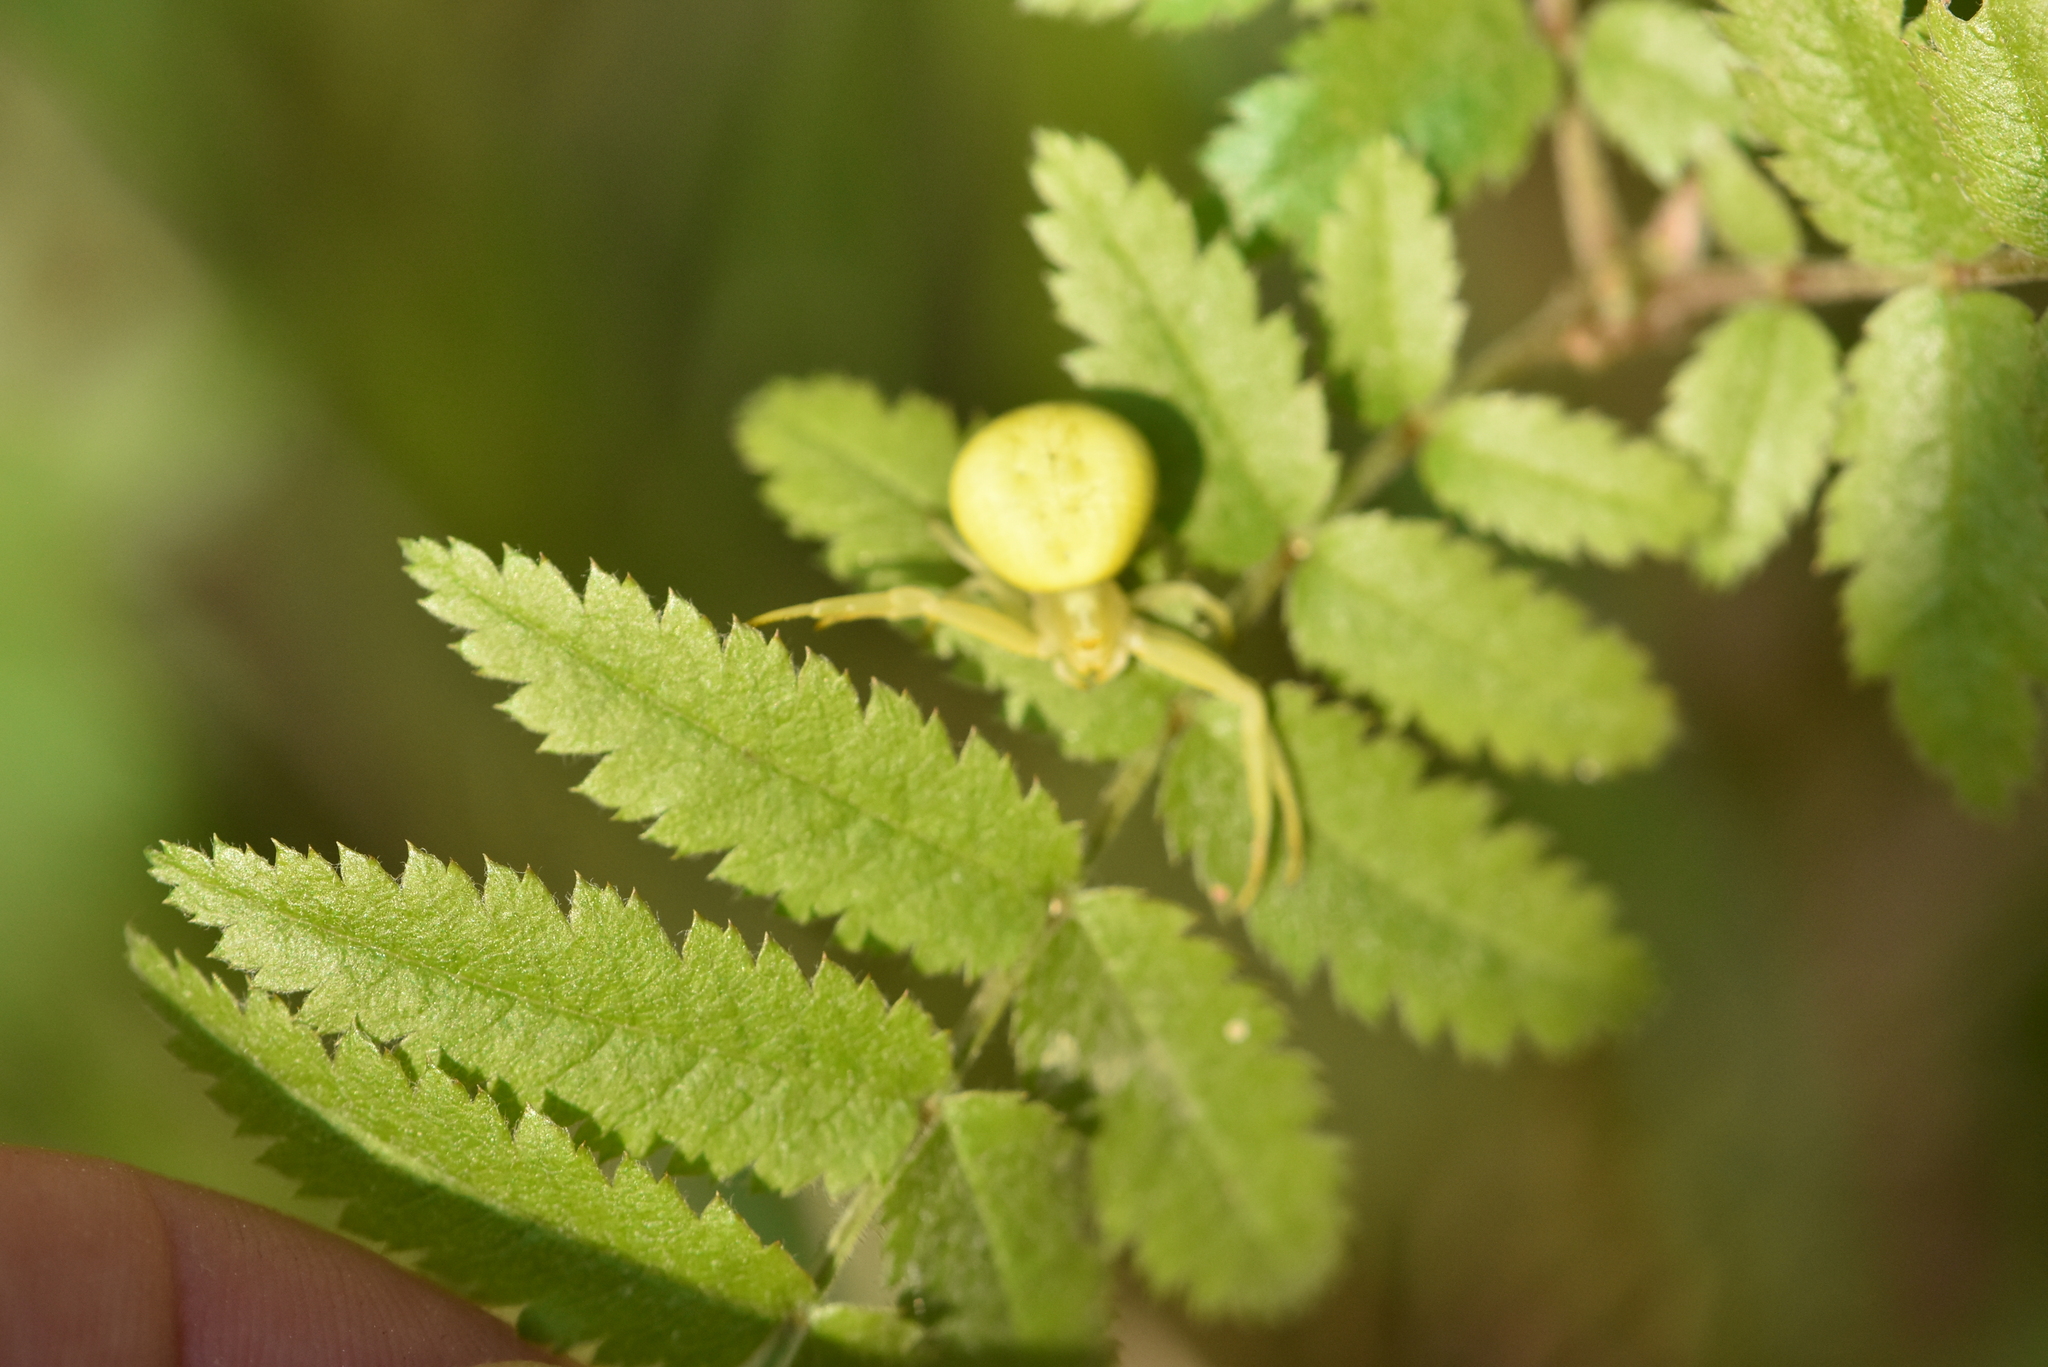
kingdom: Animalia
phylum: Arthropoda
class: Arachnida
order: Araneae
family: Thomisidae
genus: Misumena
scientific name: Misumena vatia
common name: Goldenrod crab spider
